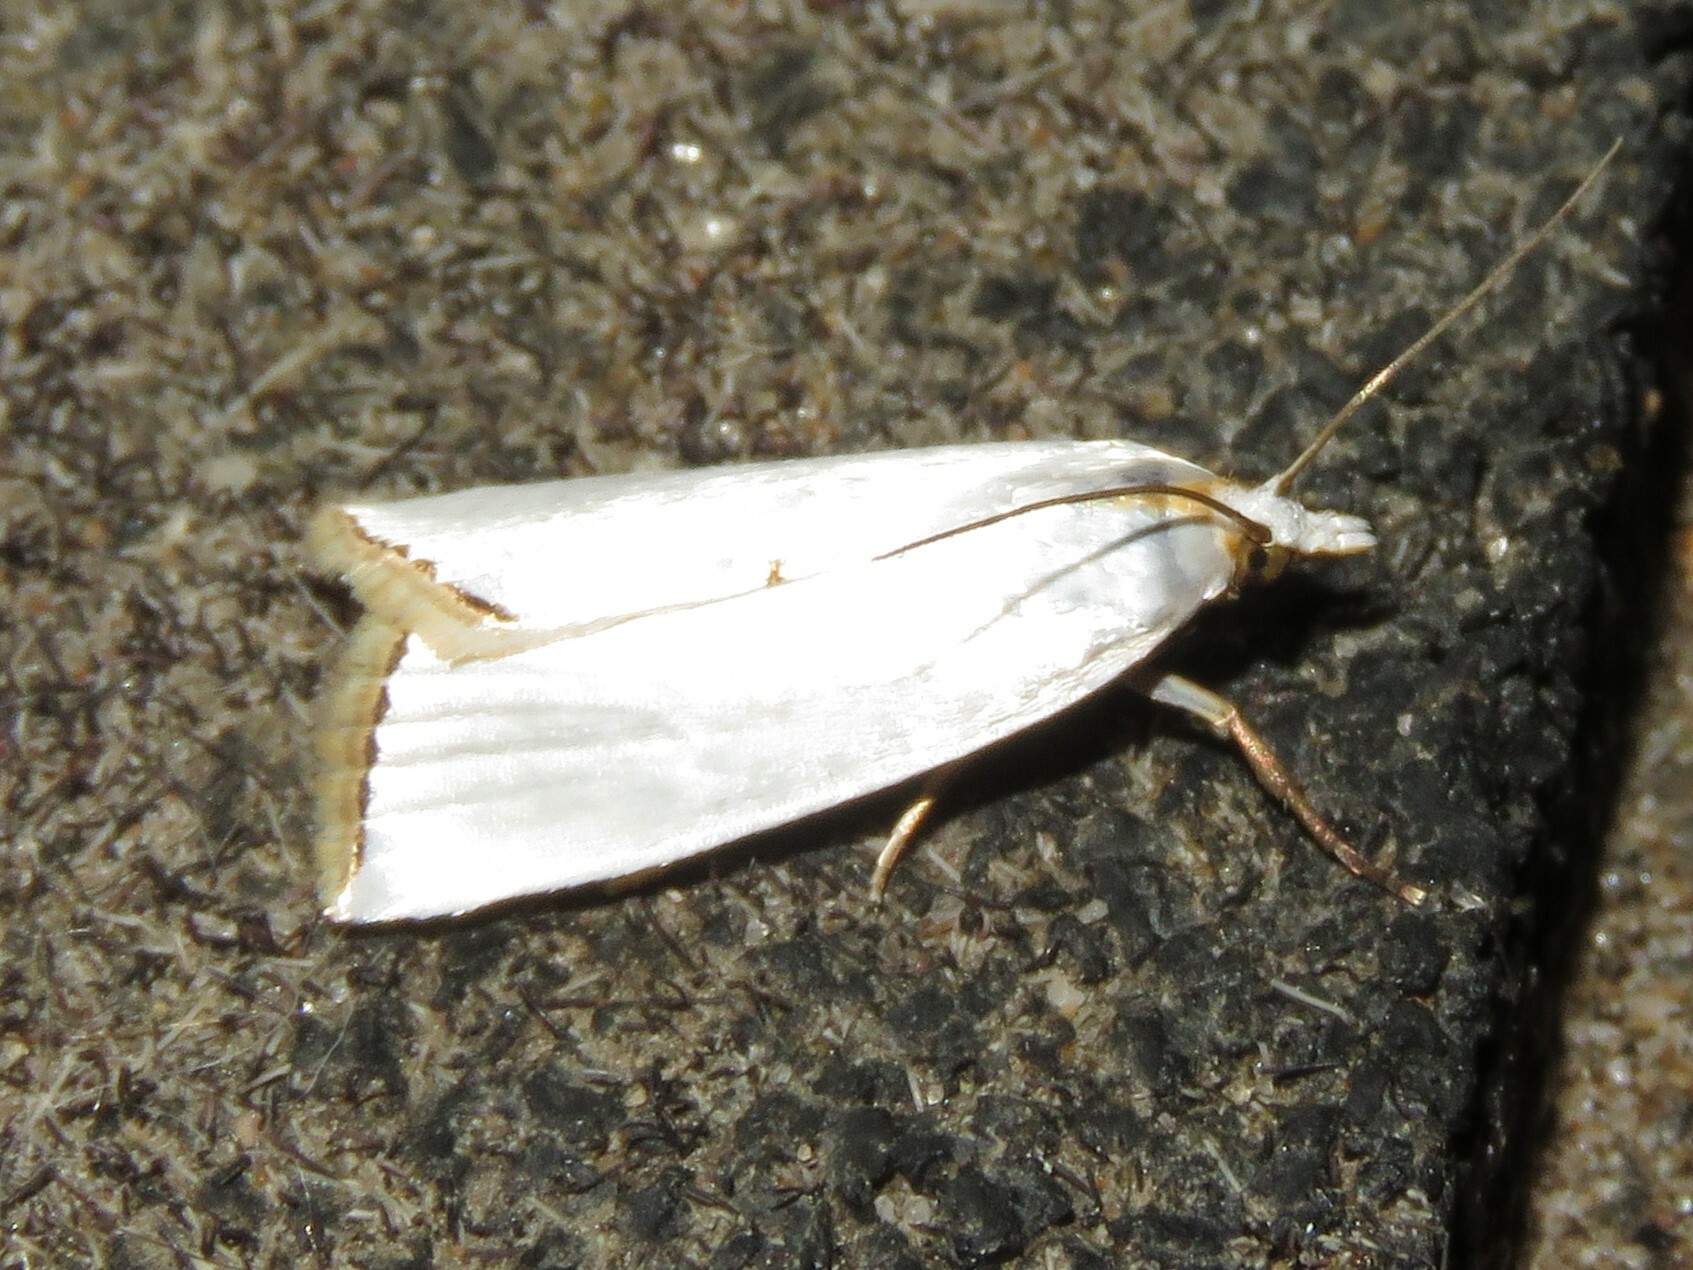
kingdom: Animalia
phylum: Arthropoda
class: Insecta
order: Lepidoptera
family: Crambidae
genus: Argyria
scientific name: Argyria nivalis
